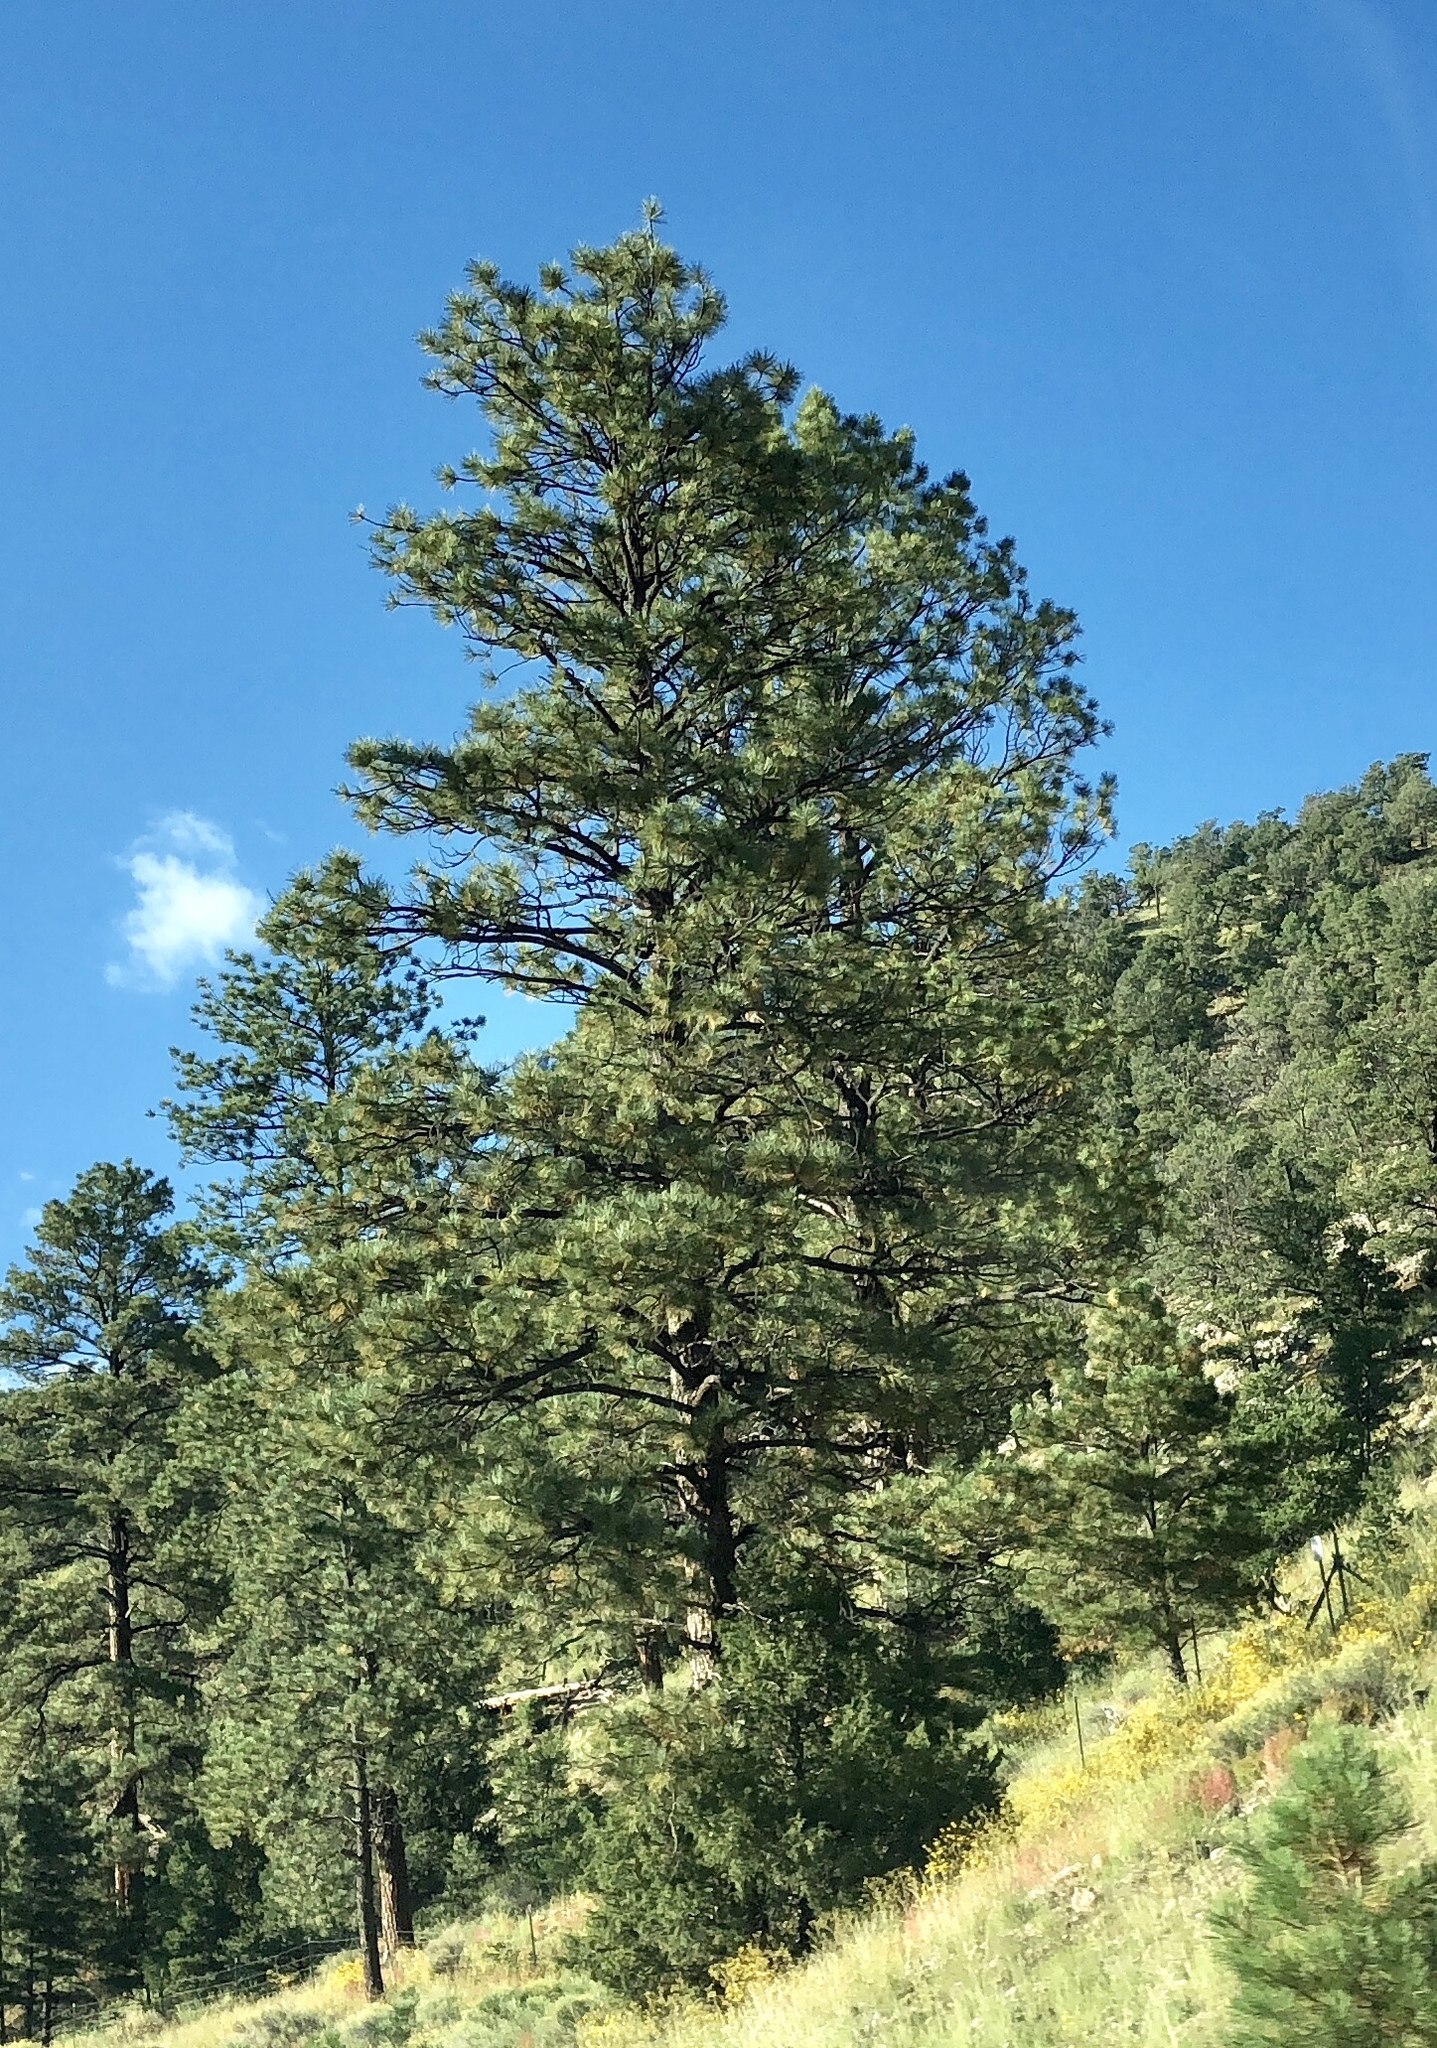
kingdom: Plantae
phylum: Tracheophyta
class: Pinopsida
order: Pinales
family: Pinaceae
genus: Pinus
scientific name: Pinus ponderosa
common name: Western yellow-pine
